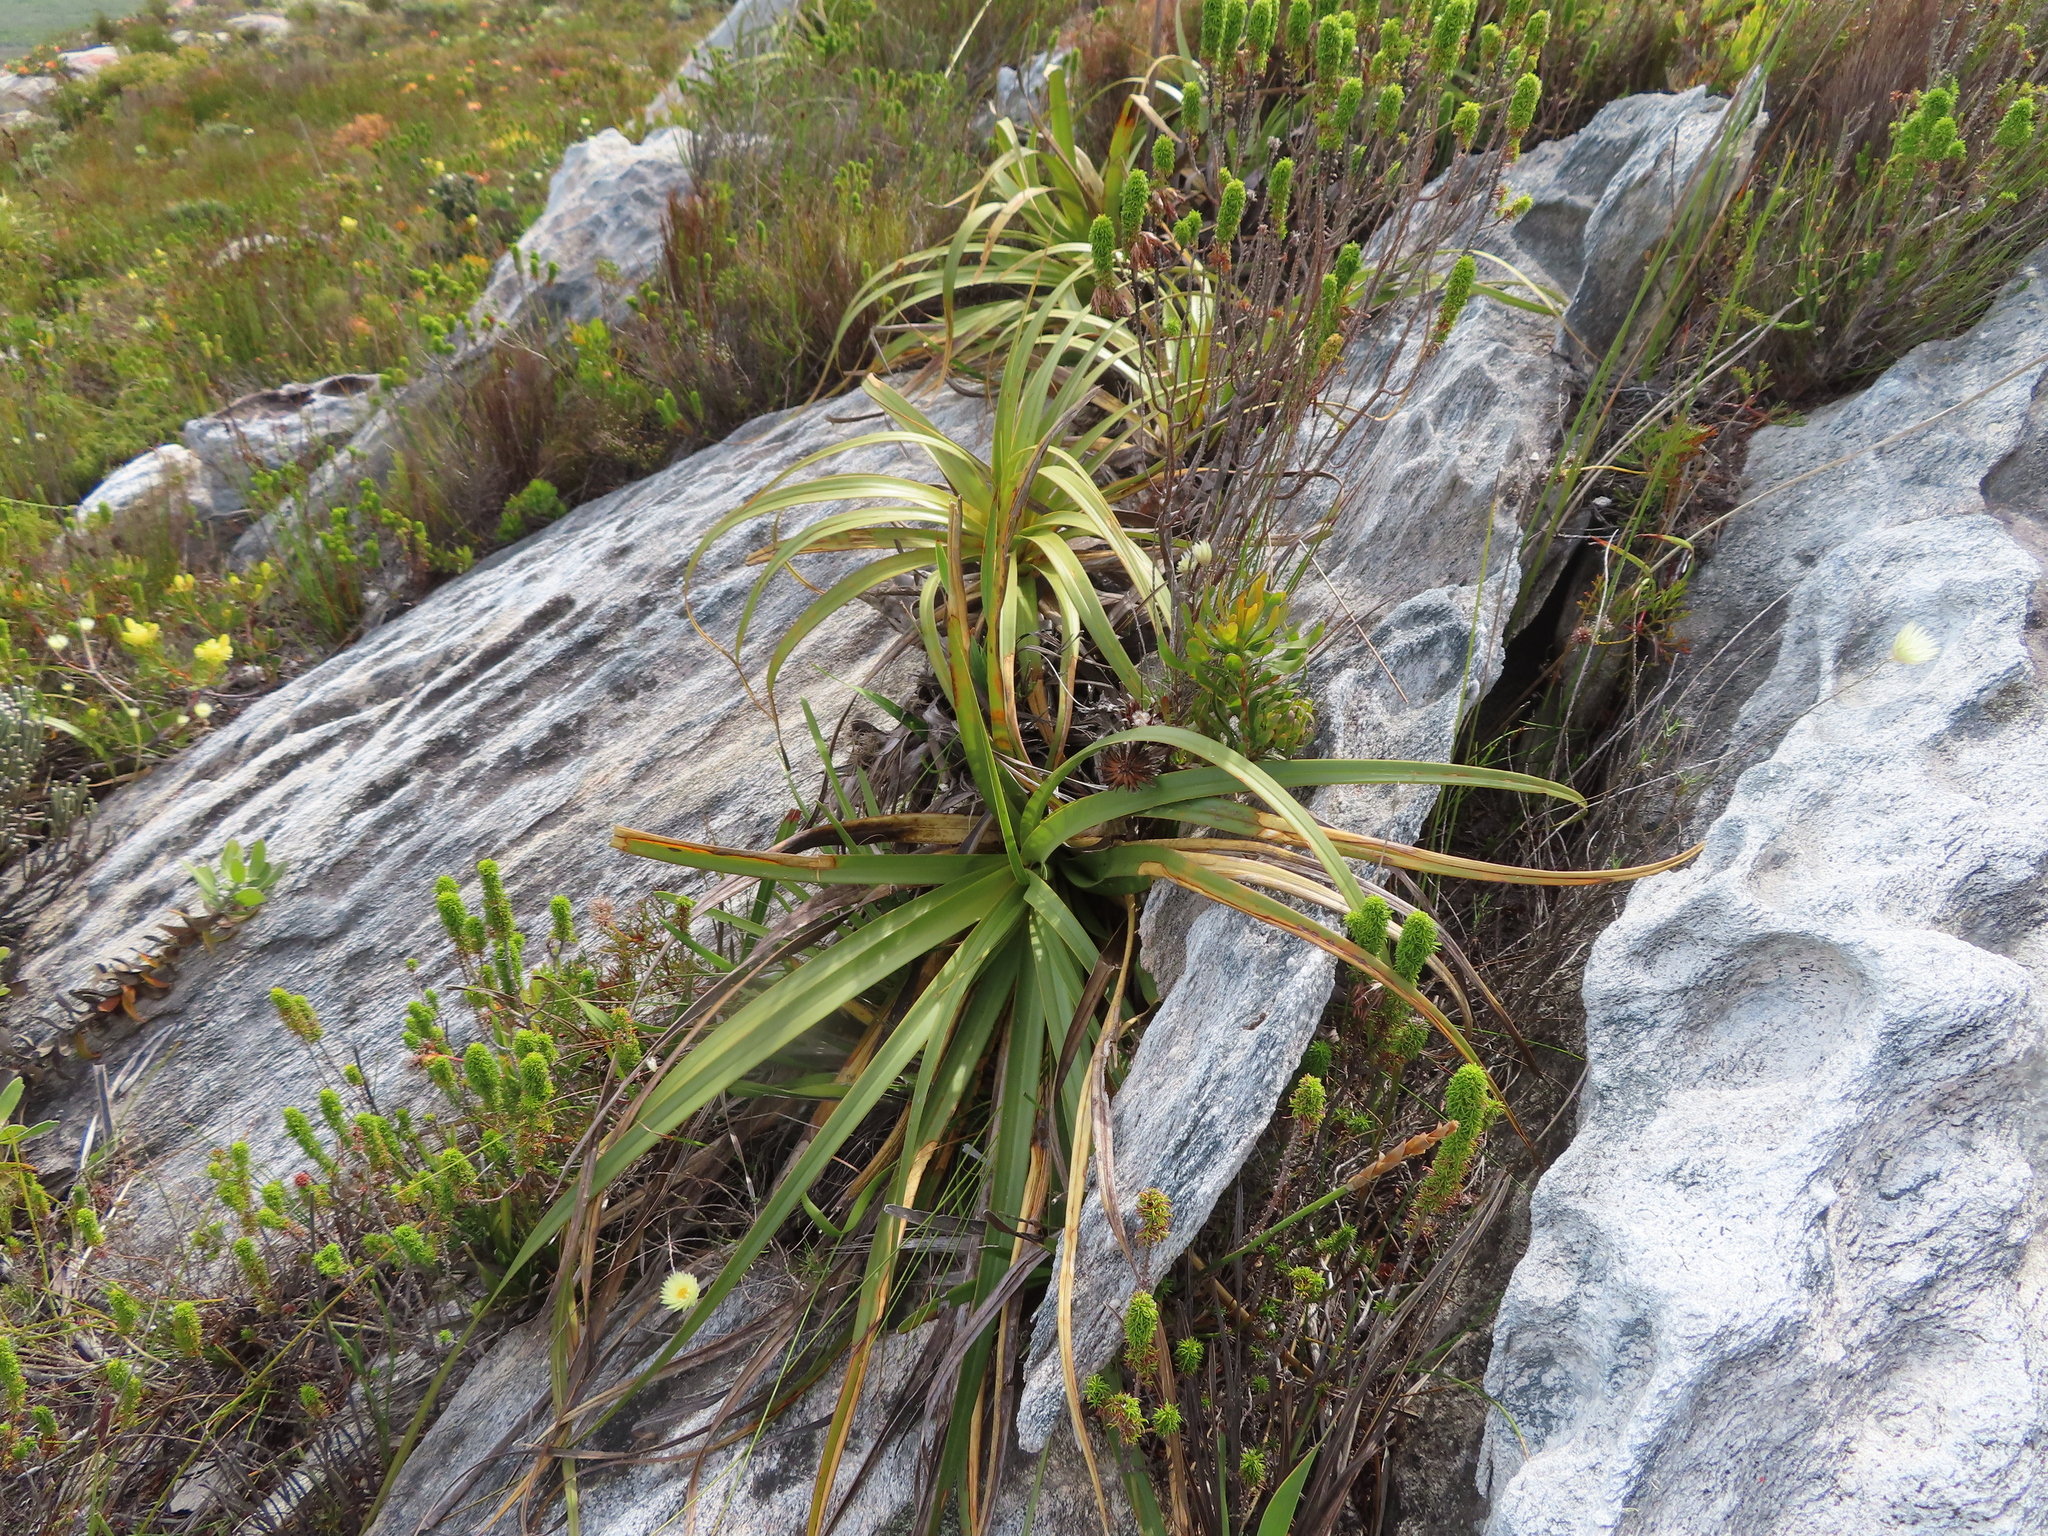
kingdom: Plantae
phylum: Tracheophyta
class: Liliopsida
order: Poales
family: Cyperaceae
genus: Tetraria
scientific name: Tetraria thermalis
